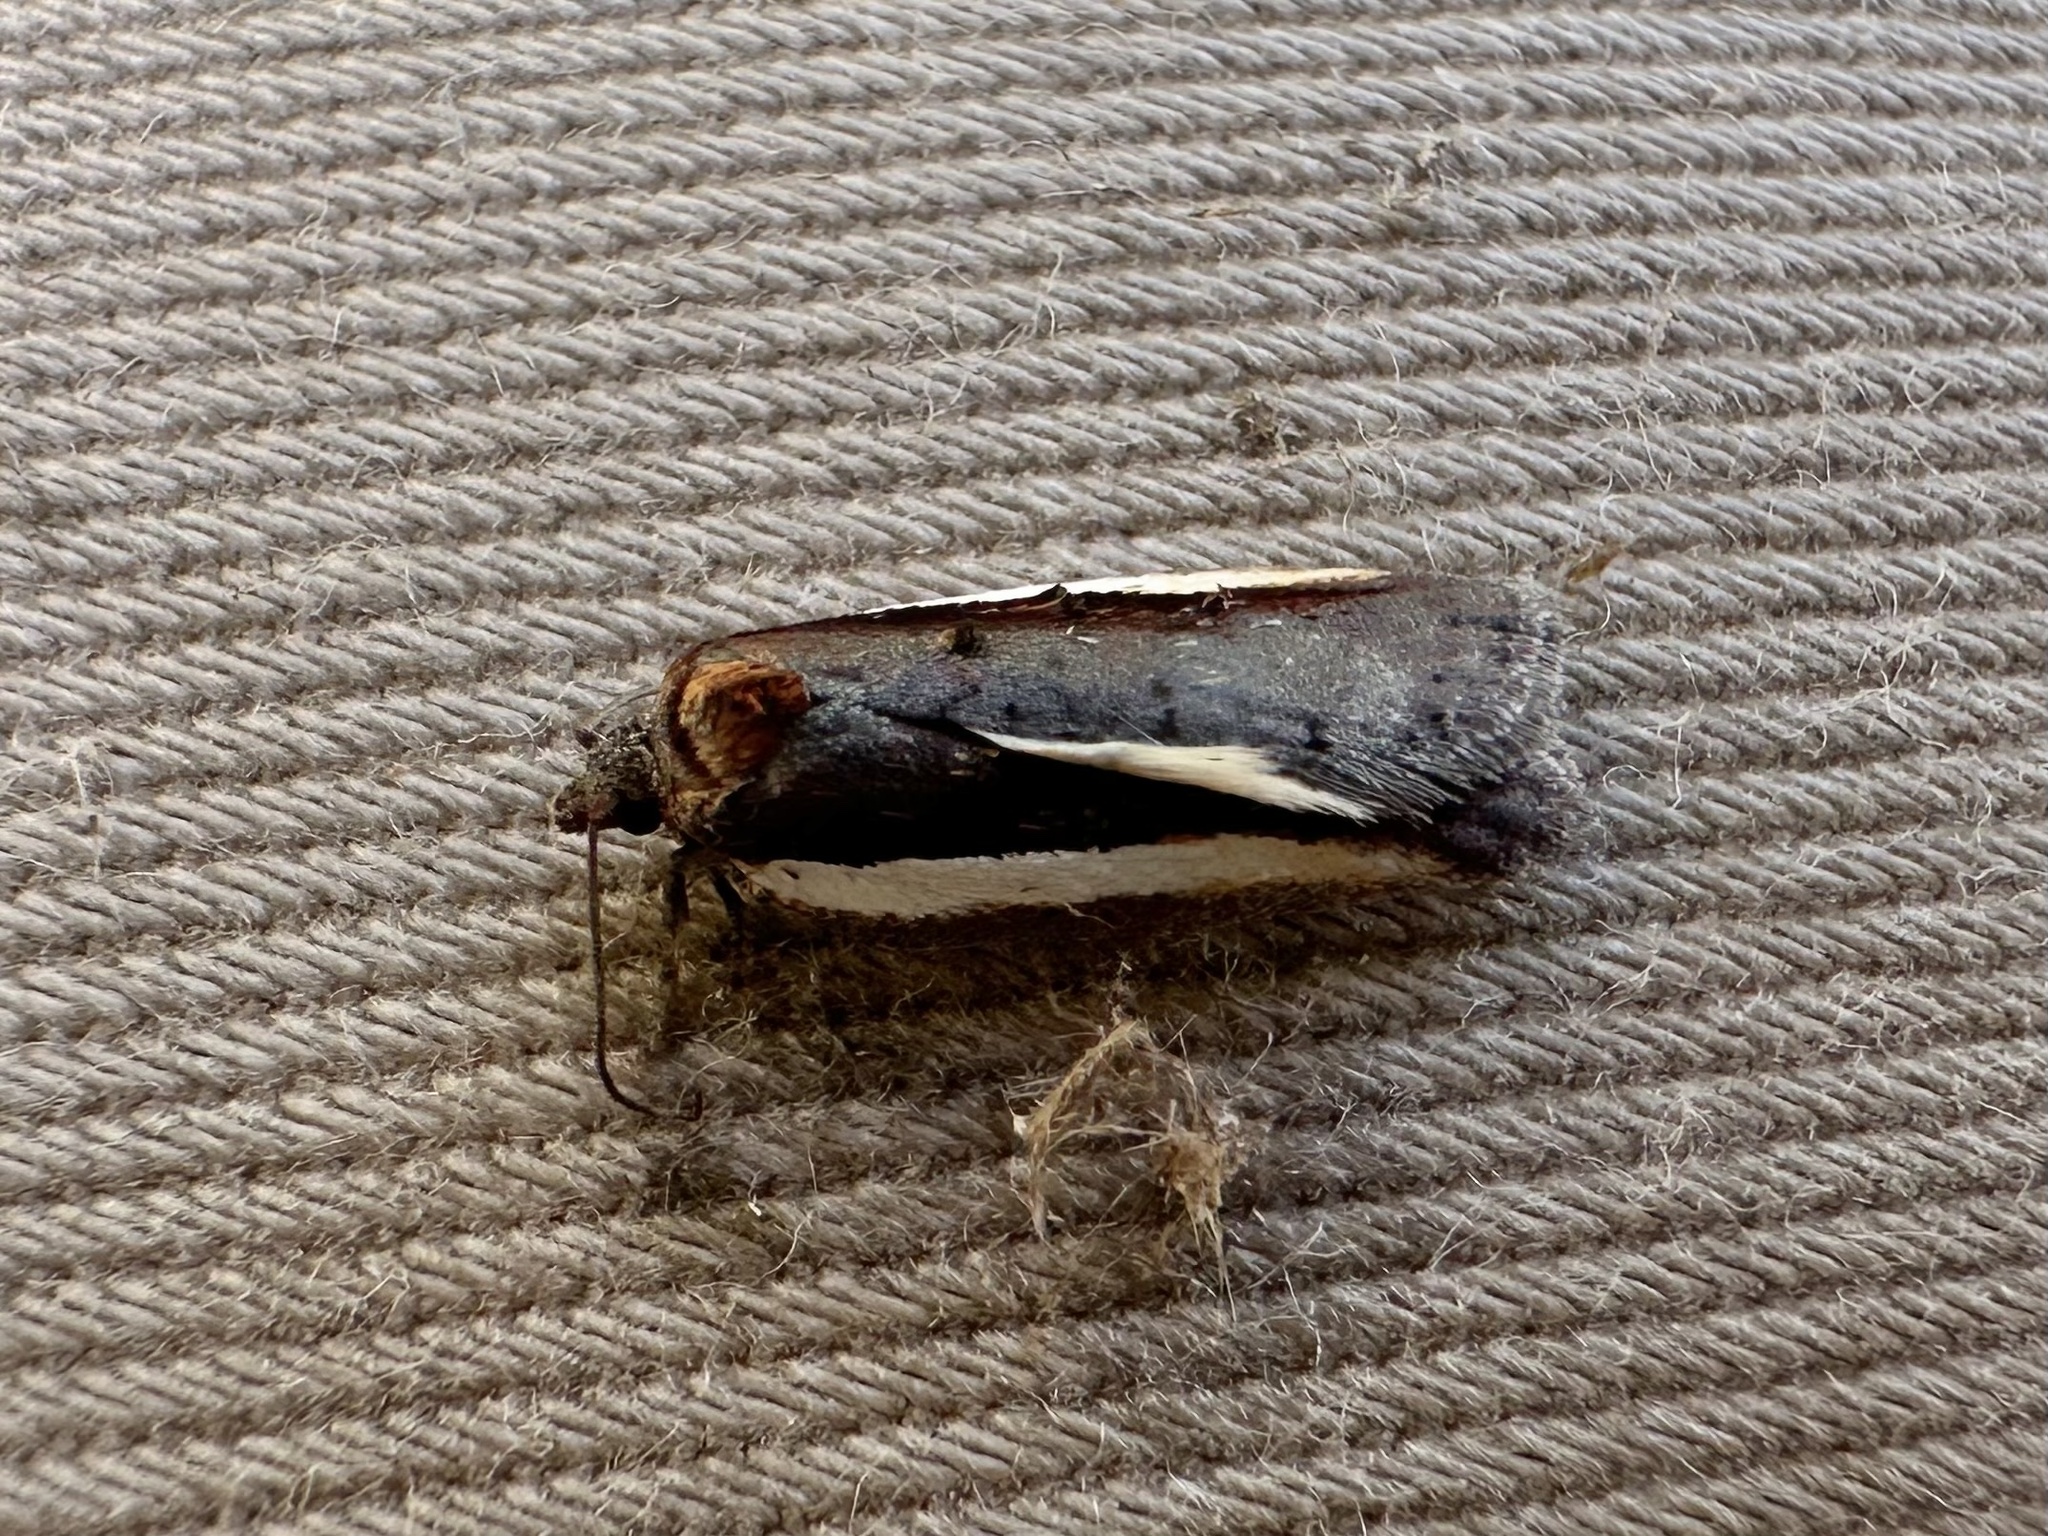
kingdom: Animalia
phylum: Arthropoda
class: Insecta
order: Lepidoptera
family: Tortricidae
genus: Acleris
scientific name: Acleris celiana
